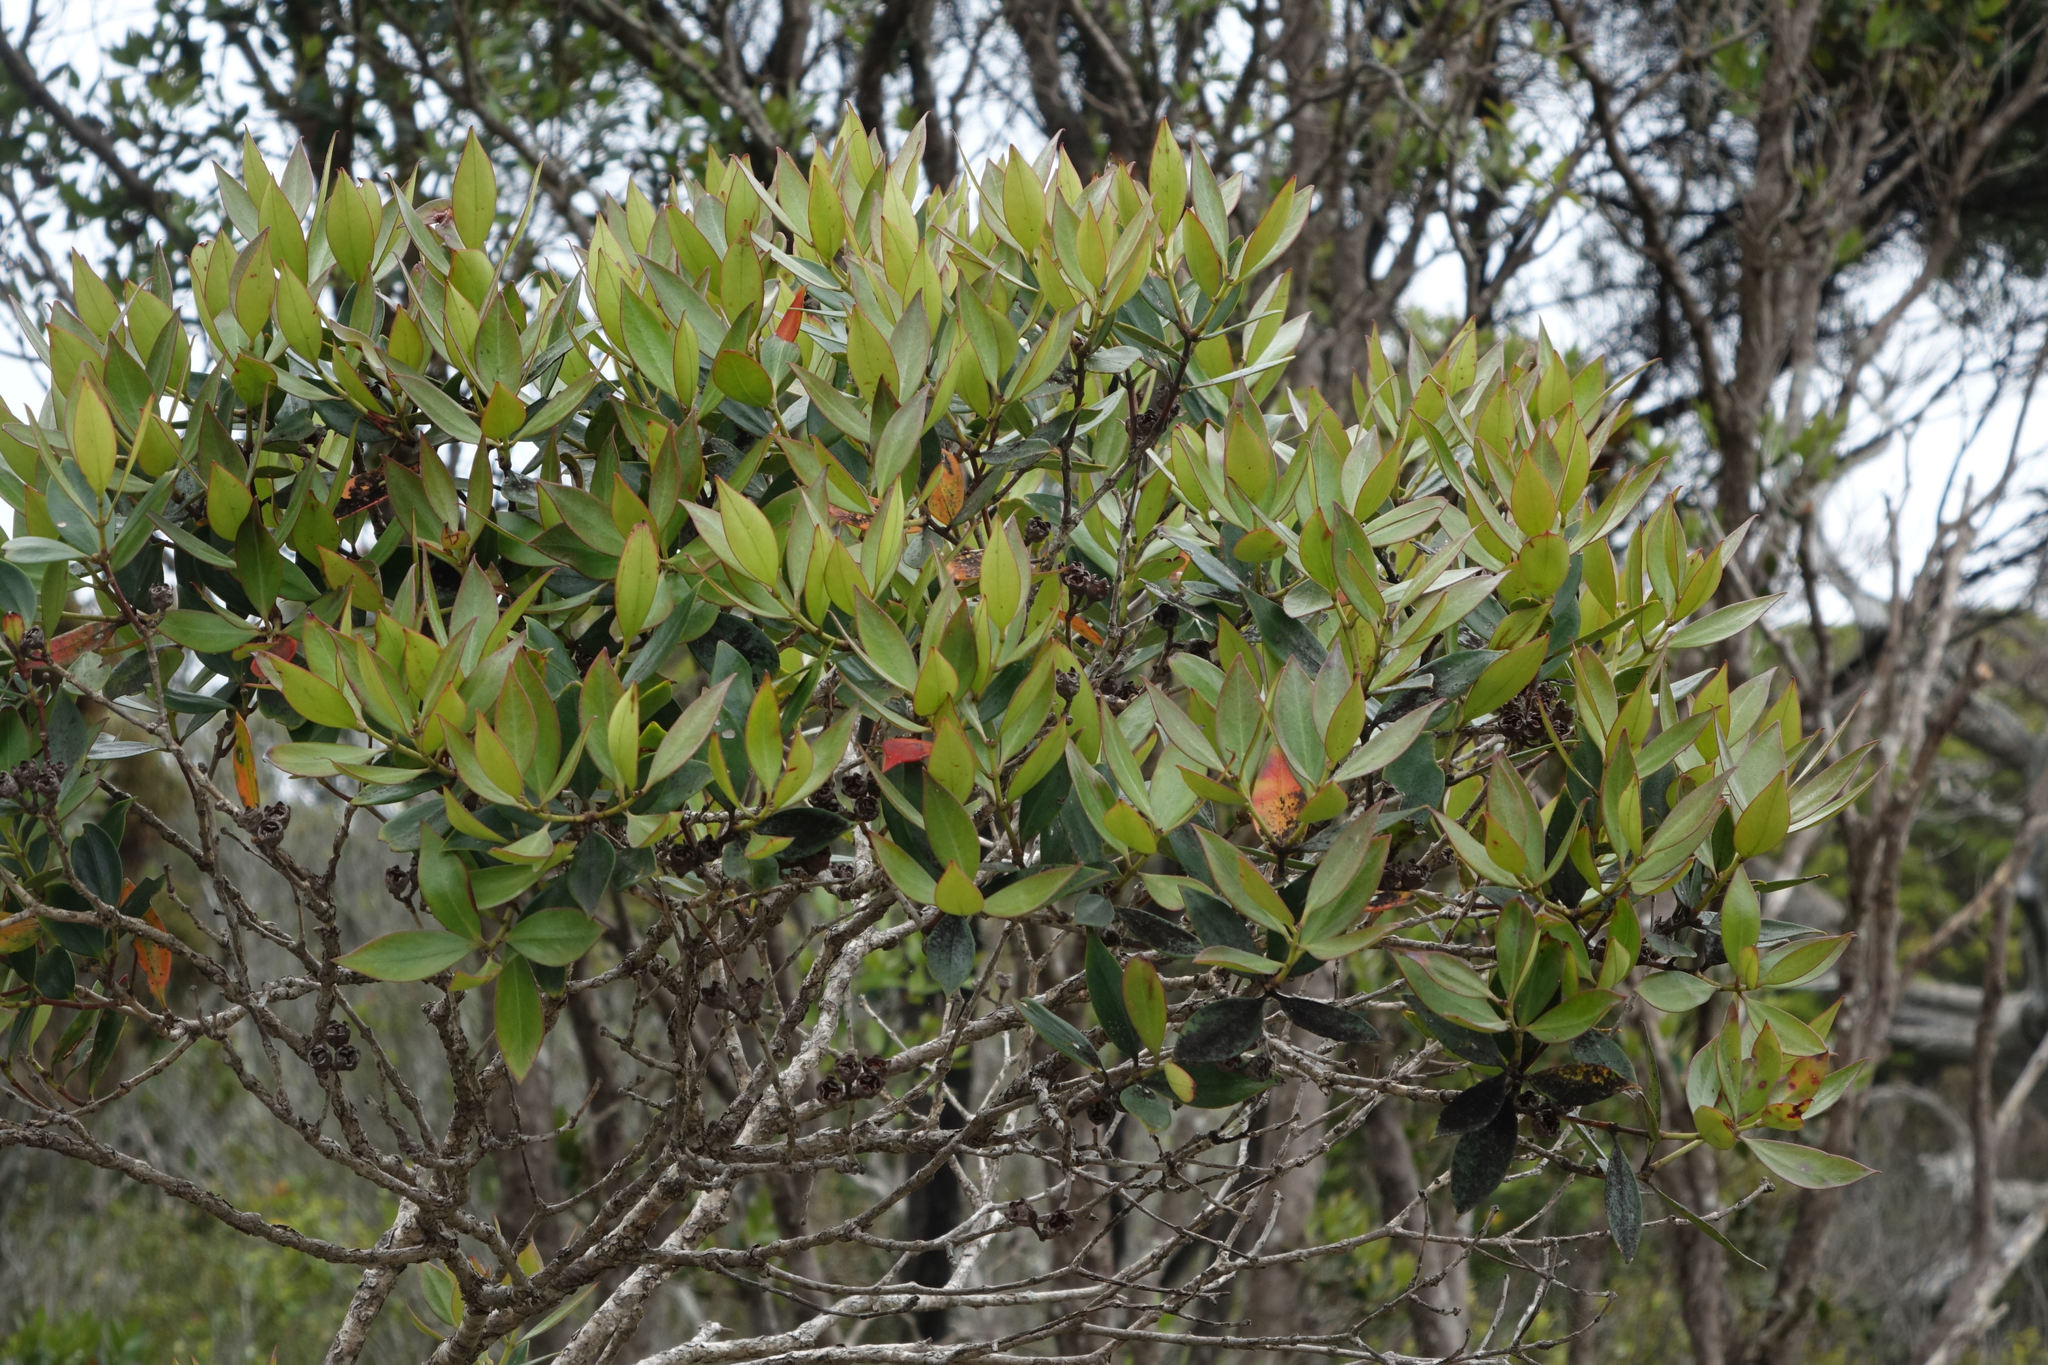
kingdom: Plantae
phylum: Tracheophyta
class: Magnoliopsida
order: Myrtales
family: Myrtaceae
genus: Metrosideros
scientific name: Metrosideros umbellata
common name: Southern rata
